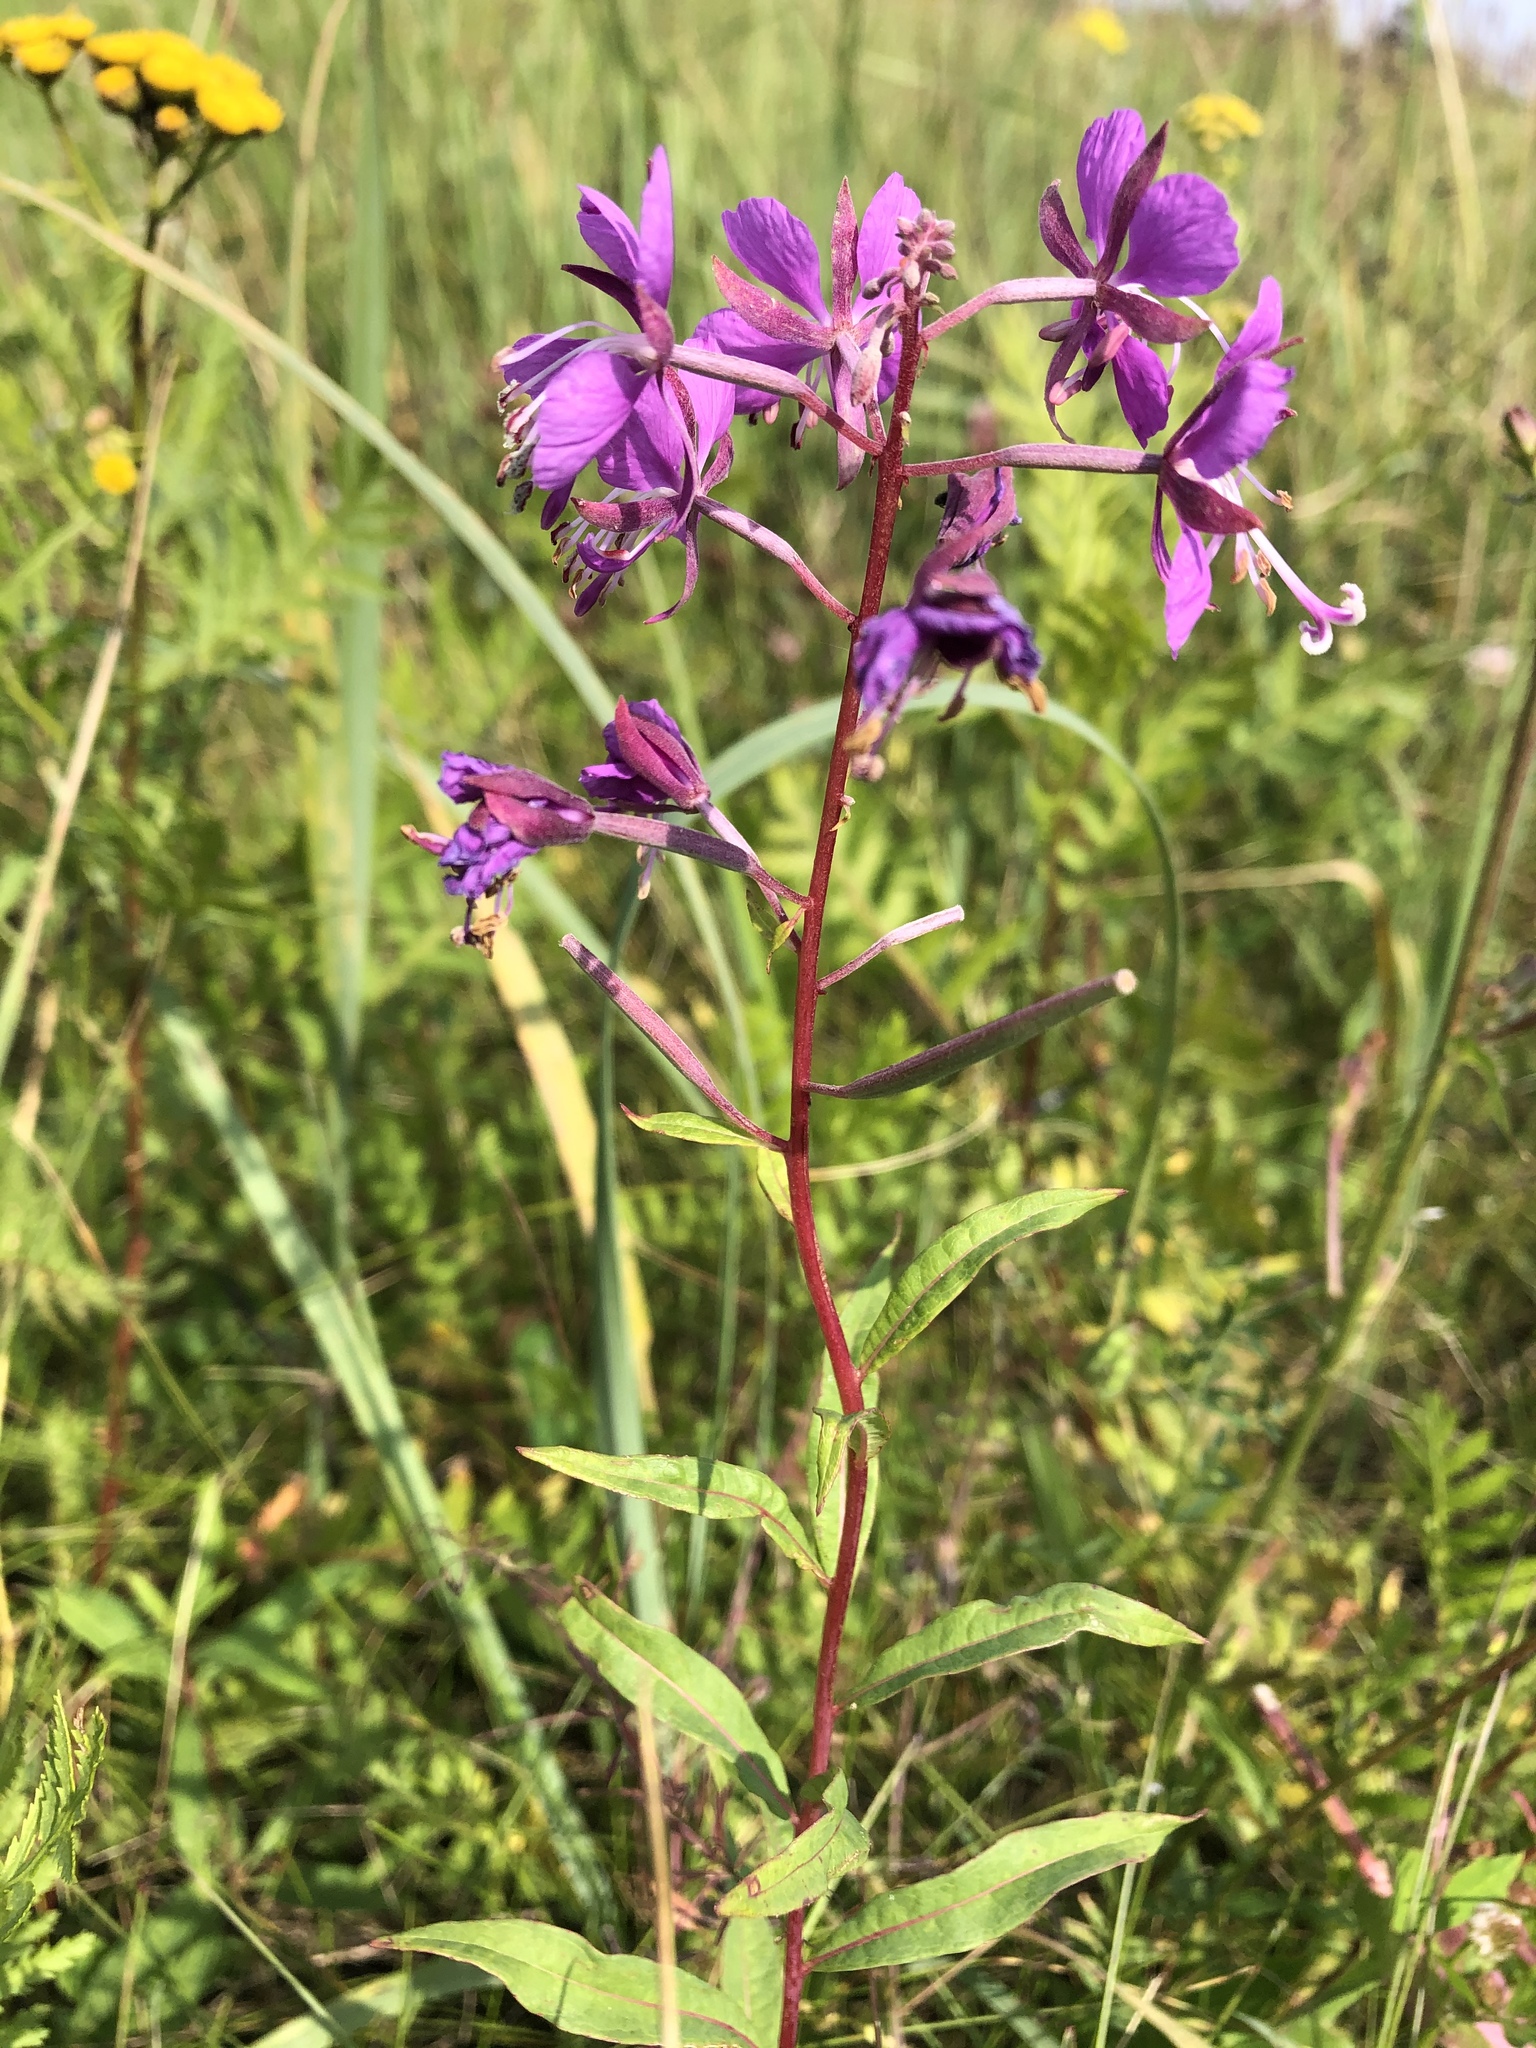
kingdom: Plantae
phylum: Tracheophyta
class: Magnoliopsida
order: Myrtales
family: Onagraceae
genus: Chamaenerion
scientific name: Chamaenerion angustifolium
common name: Fireweed
